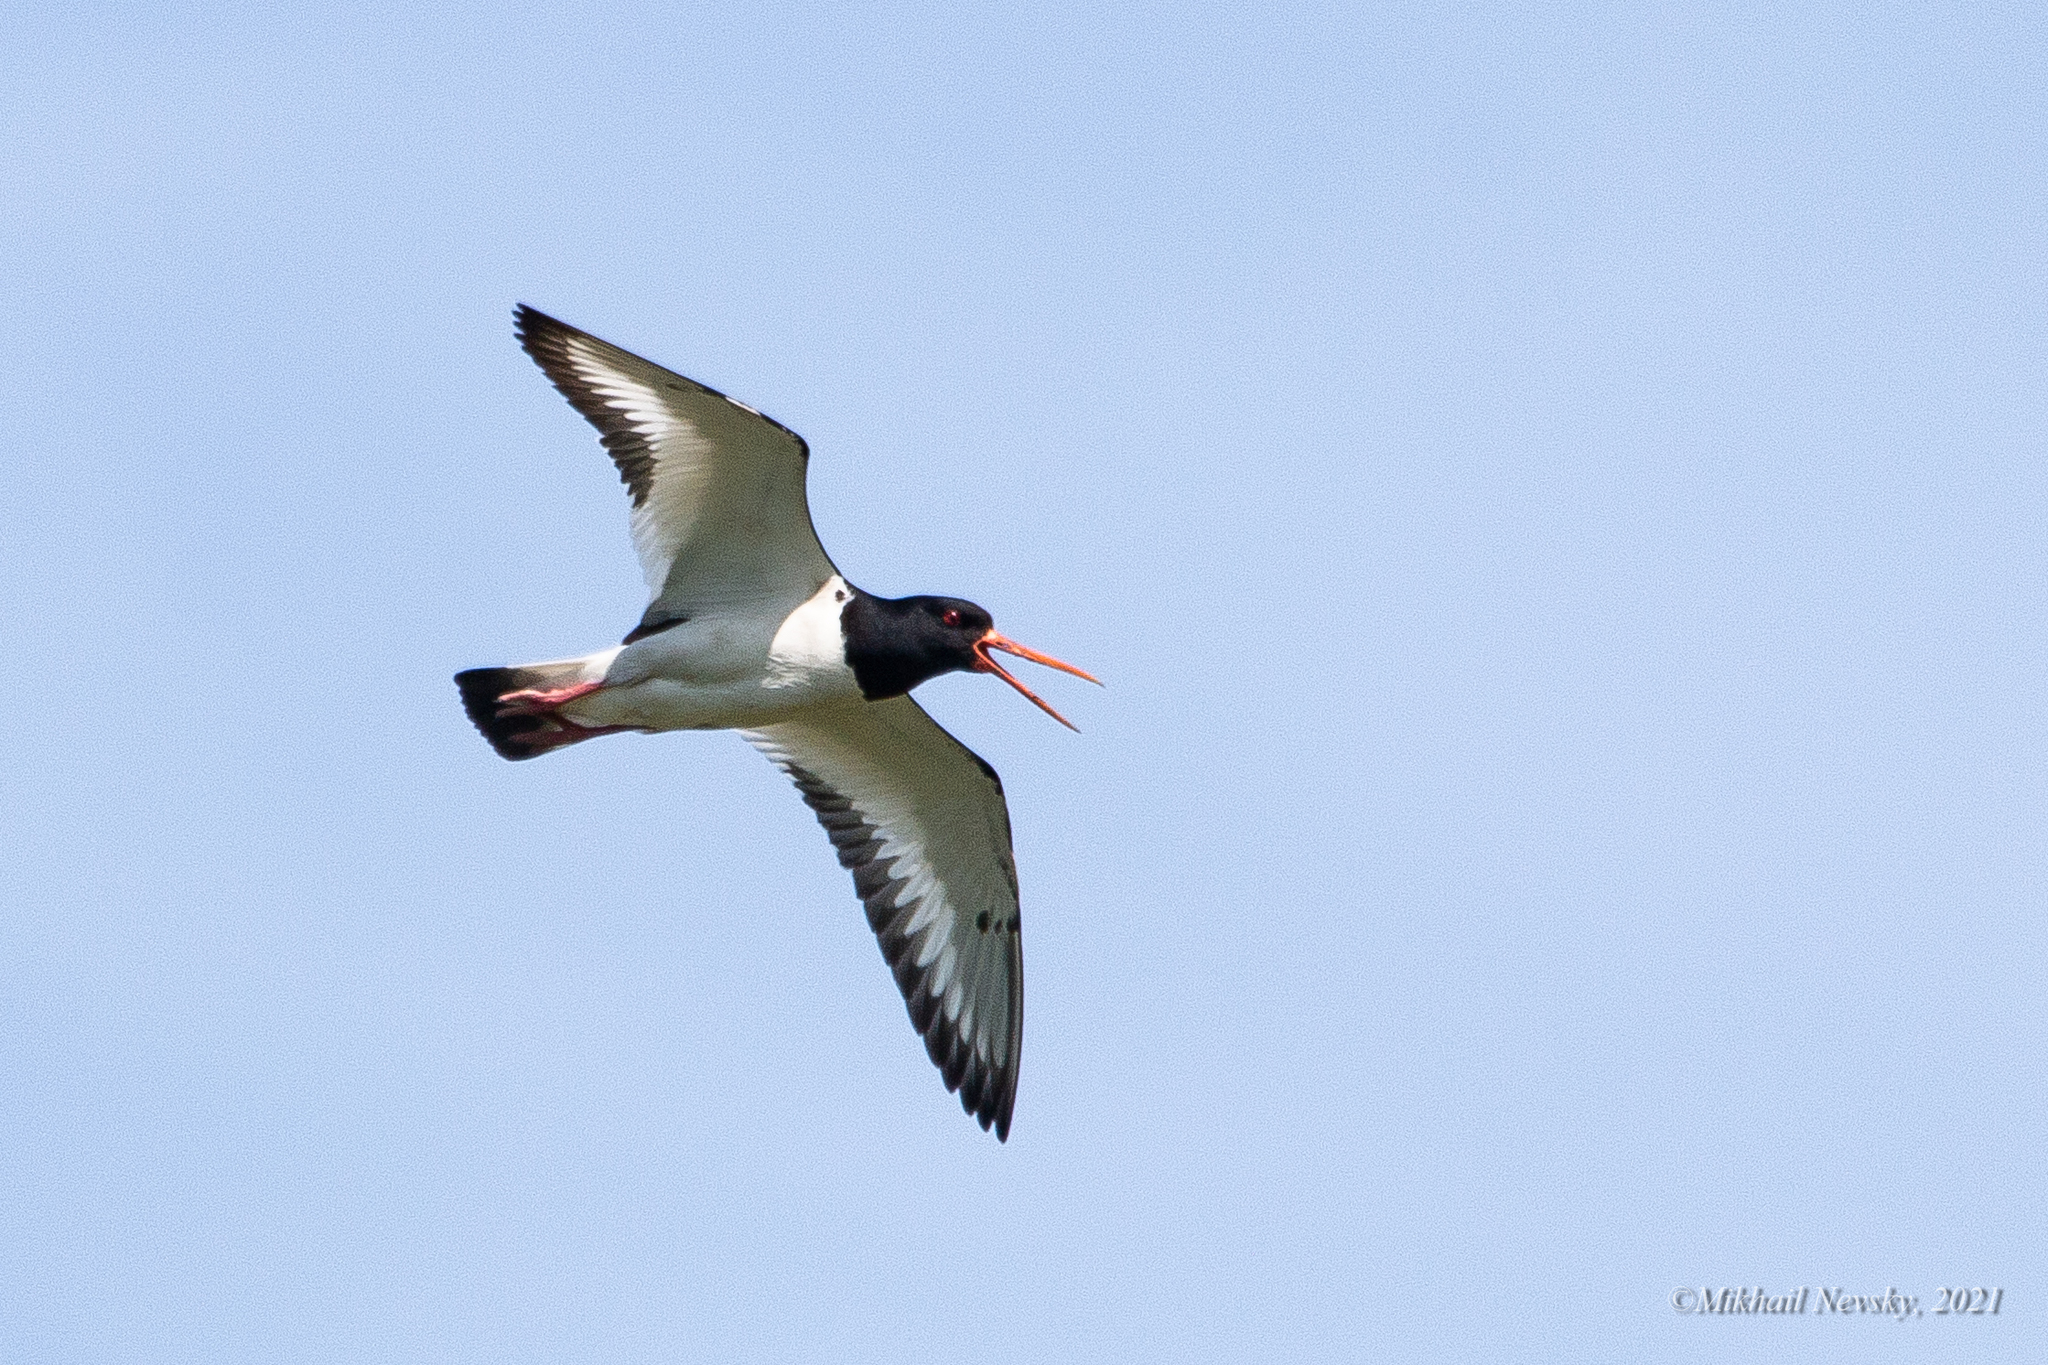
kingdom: Animalia
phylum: Chordata
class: Aves
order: Charadriiformes
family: Haematopodidae
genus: Haematopus
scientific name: Haematopus ostralegus
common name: Eurasian oystercatcher
